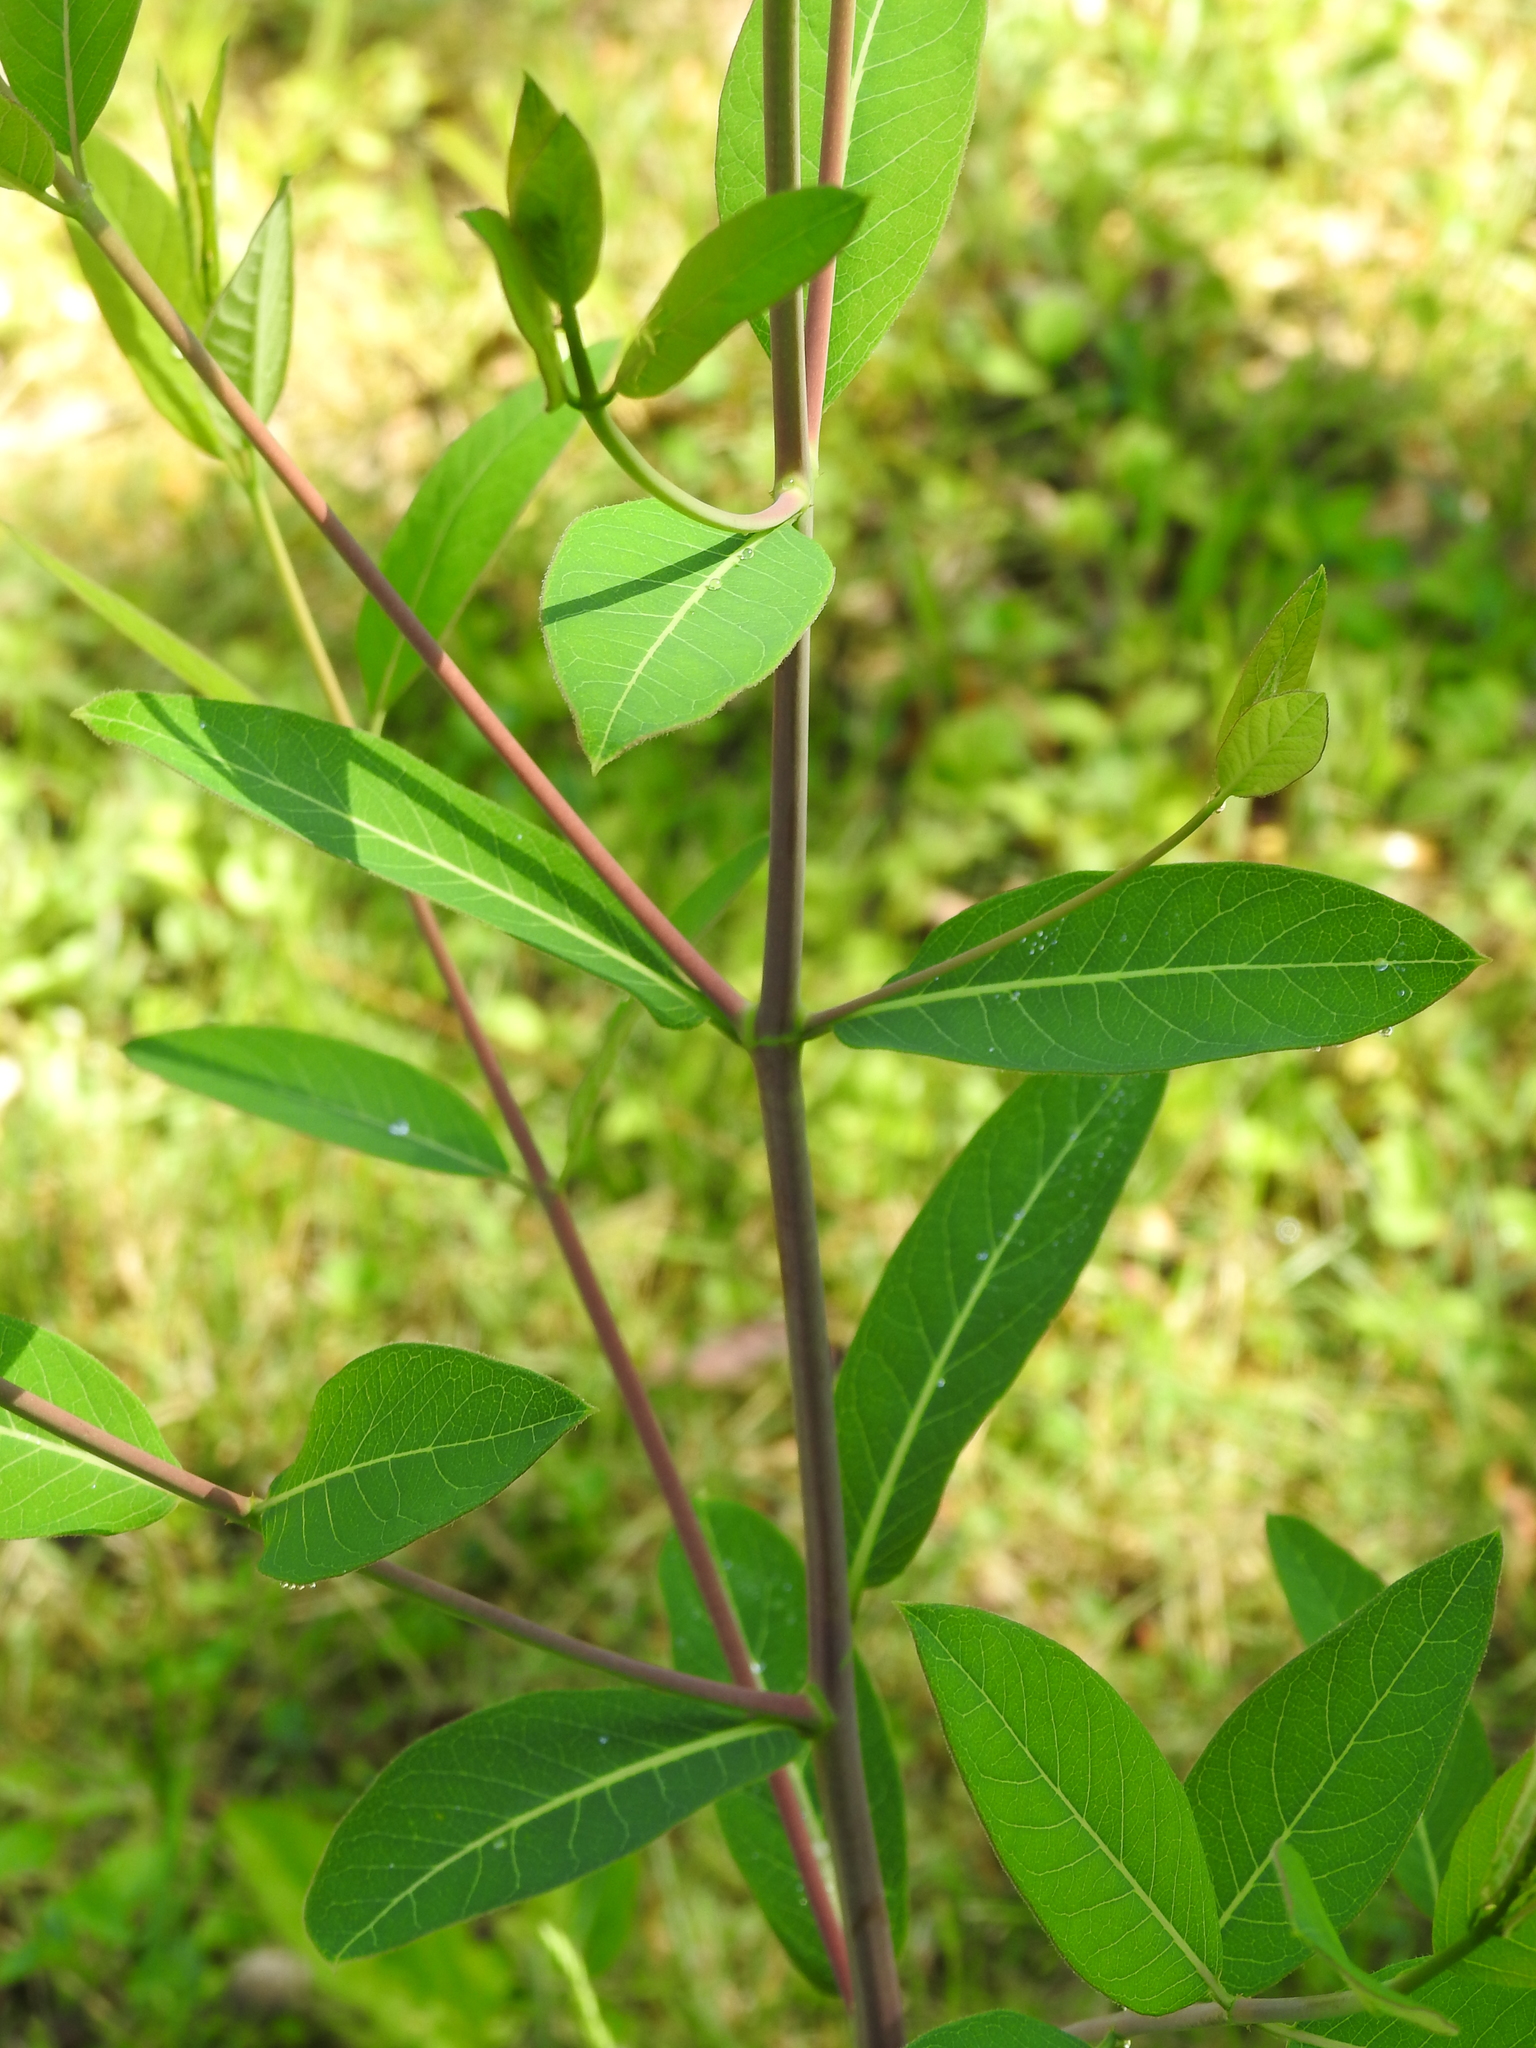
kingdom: Plantae
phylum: Tracheophyta
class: Magnoliopsida
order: Gentianales
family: Apocynaceae
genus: Apocynum
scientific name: Apocynum cannabinum
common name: Hemp dogbane
